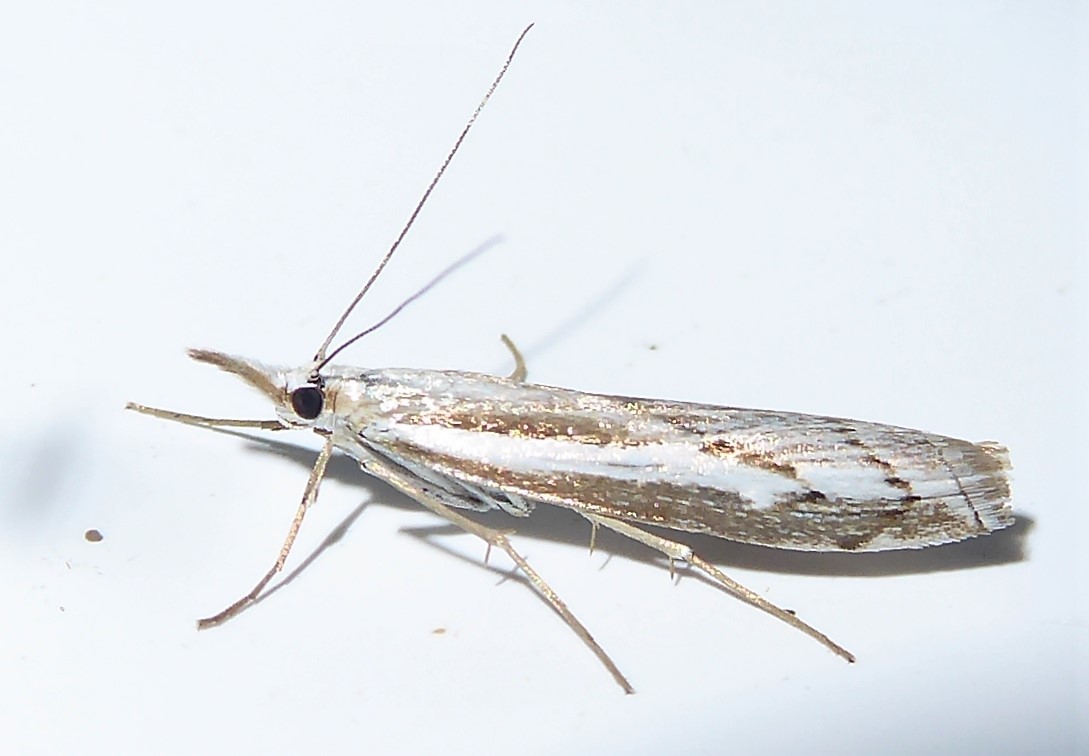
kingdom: Animalia
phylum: Arthropoda
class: Insecta
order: Lepidoptera
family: Crambidae
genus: Orocrambus
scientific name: Orocrambus vittellus
